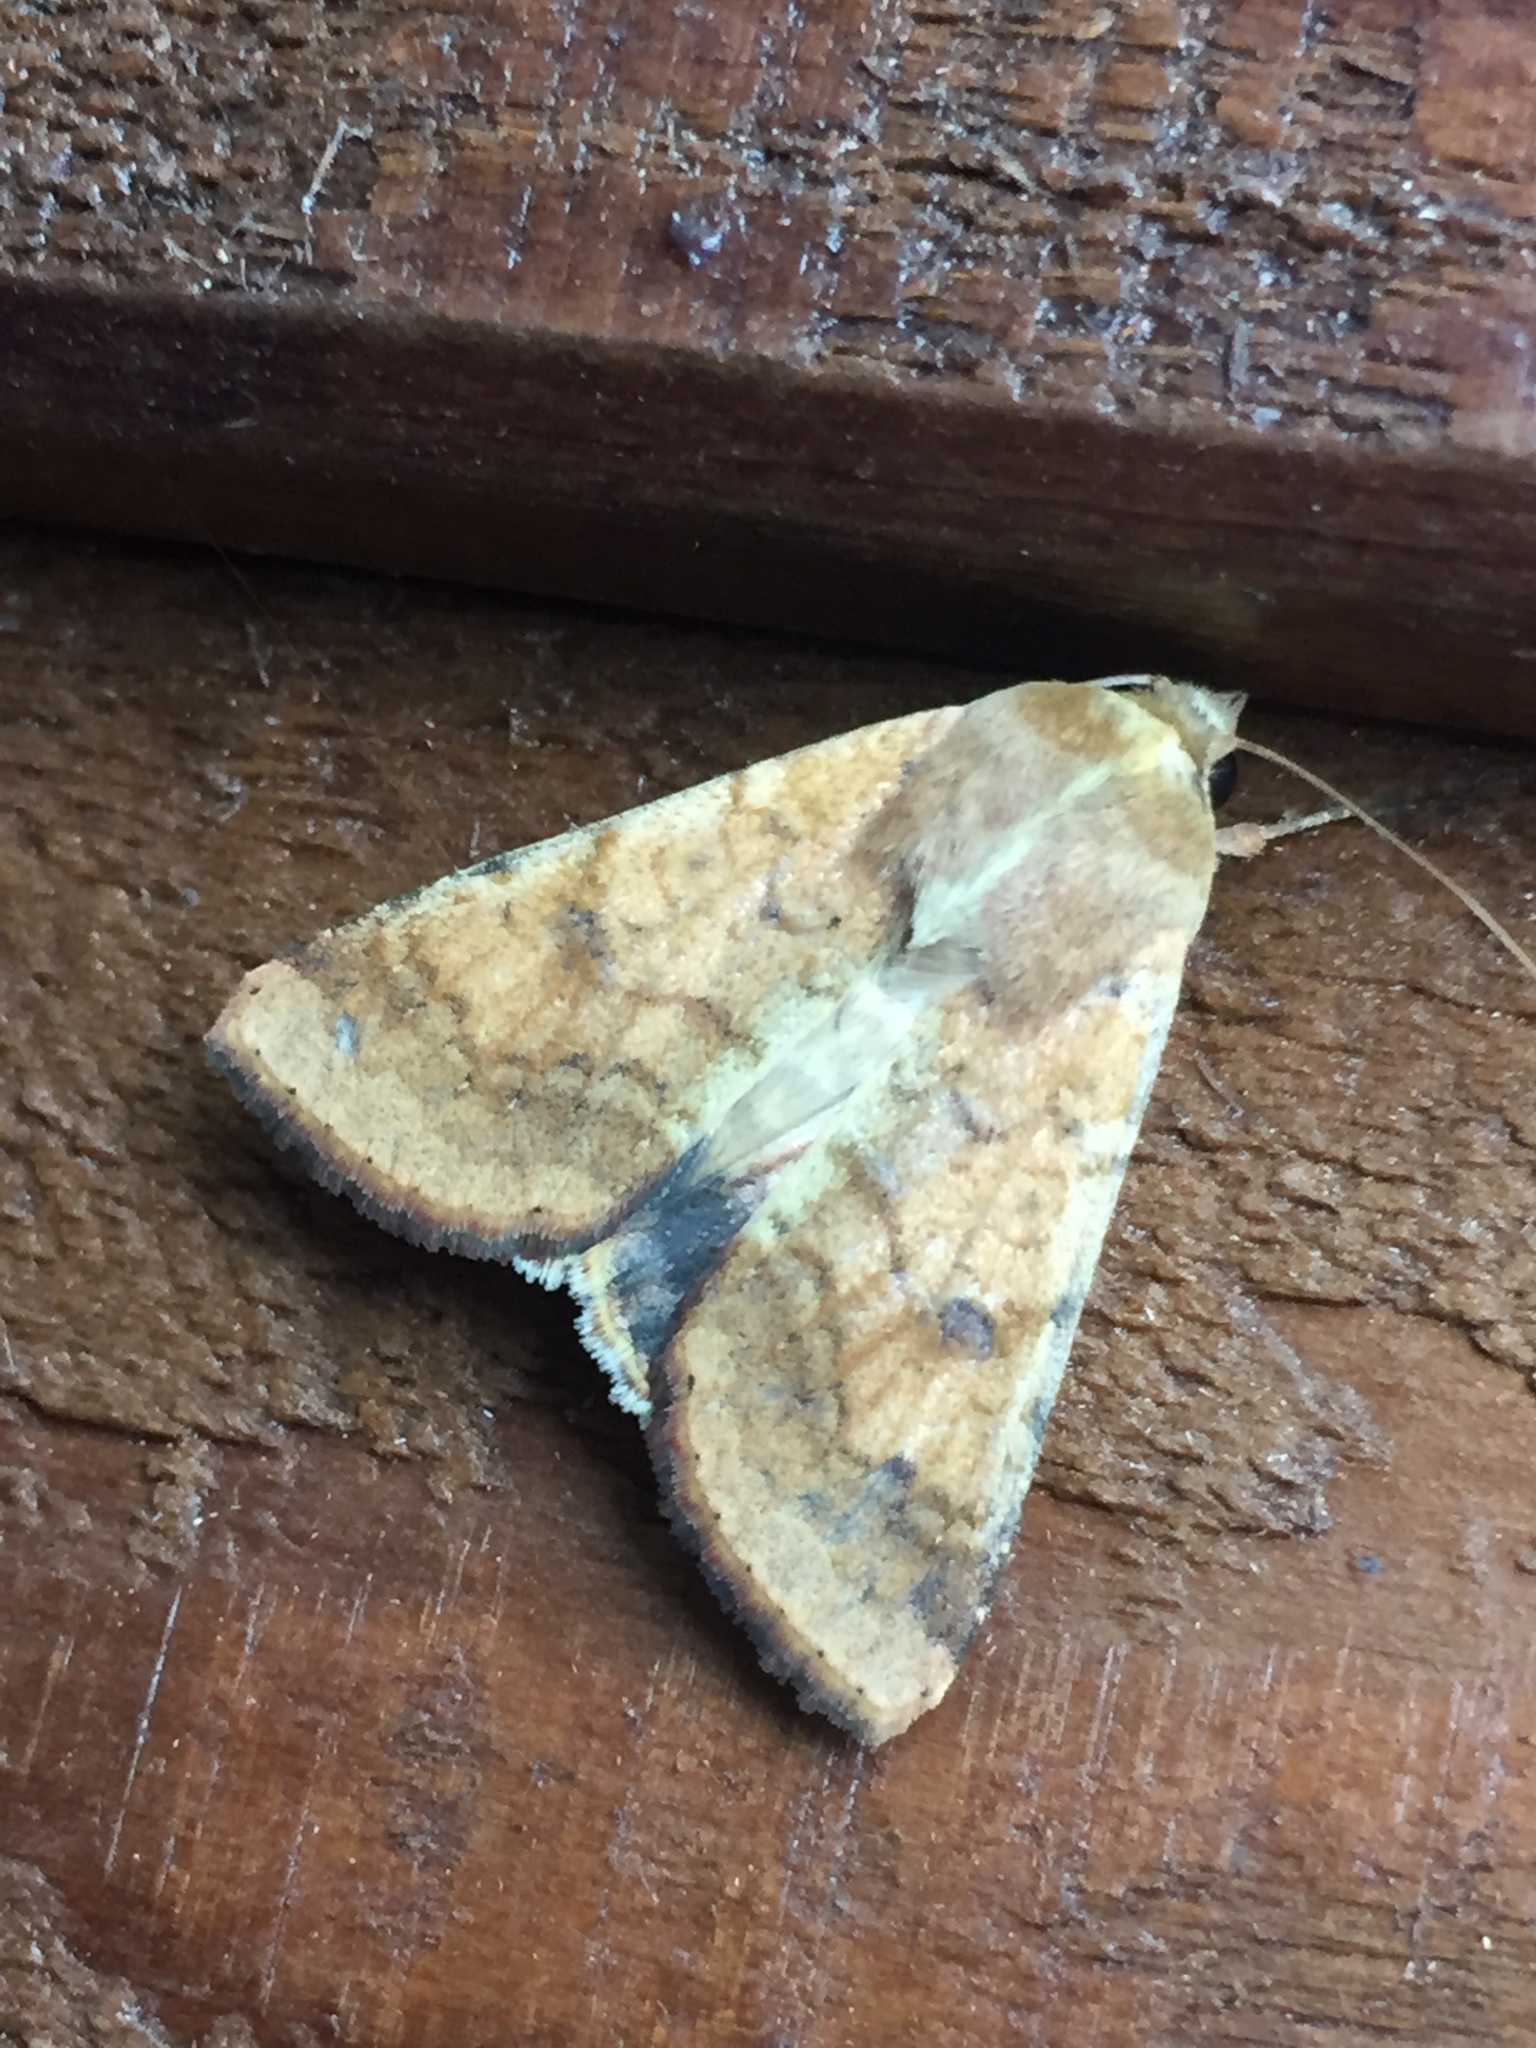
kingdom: Animalia
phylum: Arthropoda
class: Insecta
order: Lepidoptera
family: Noctuidae
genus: Helicoverpa
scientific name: Helicoverpa armigera
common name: Cotton bollworm
